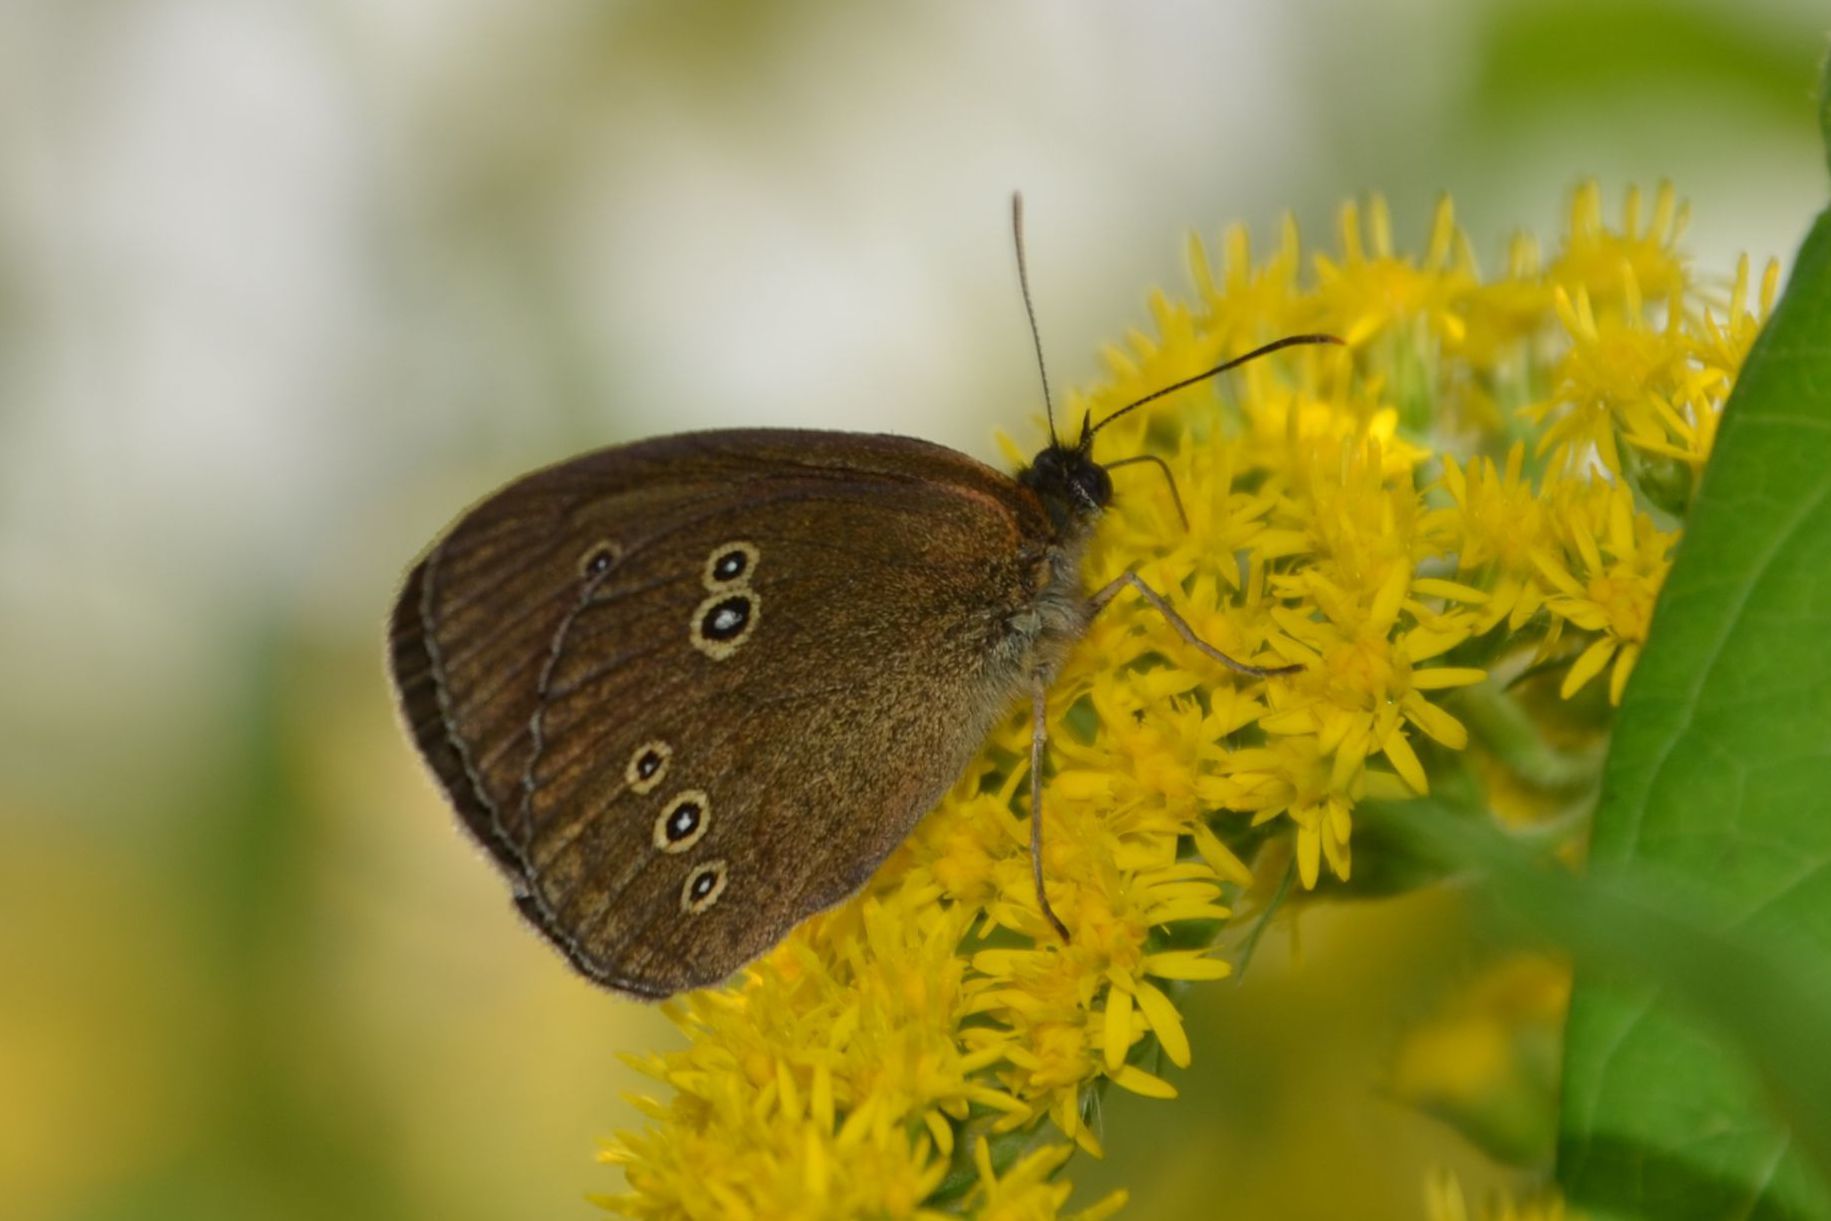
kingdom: Animalia
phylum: Arthropoda
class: Insecta
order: Lepidoptera
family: Nymphalidae
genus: Aphantopus
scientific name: Aphantopus hyperantus
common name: Ringlet
